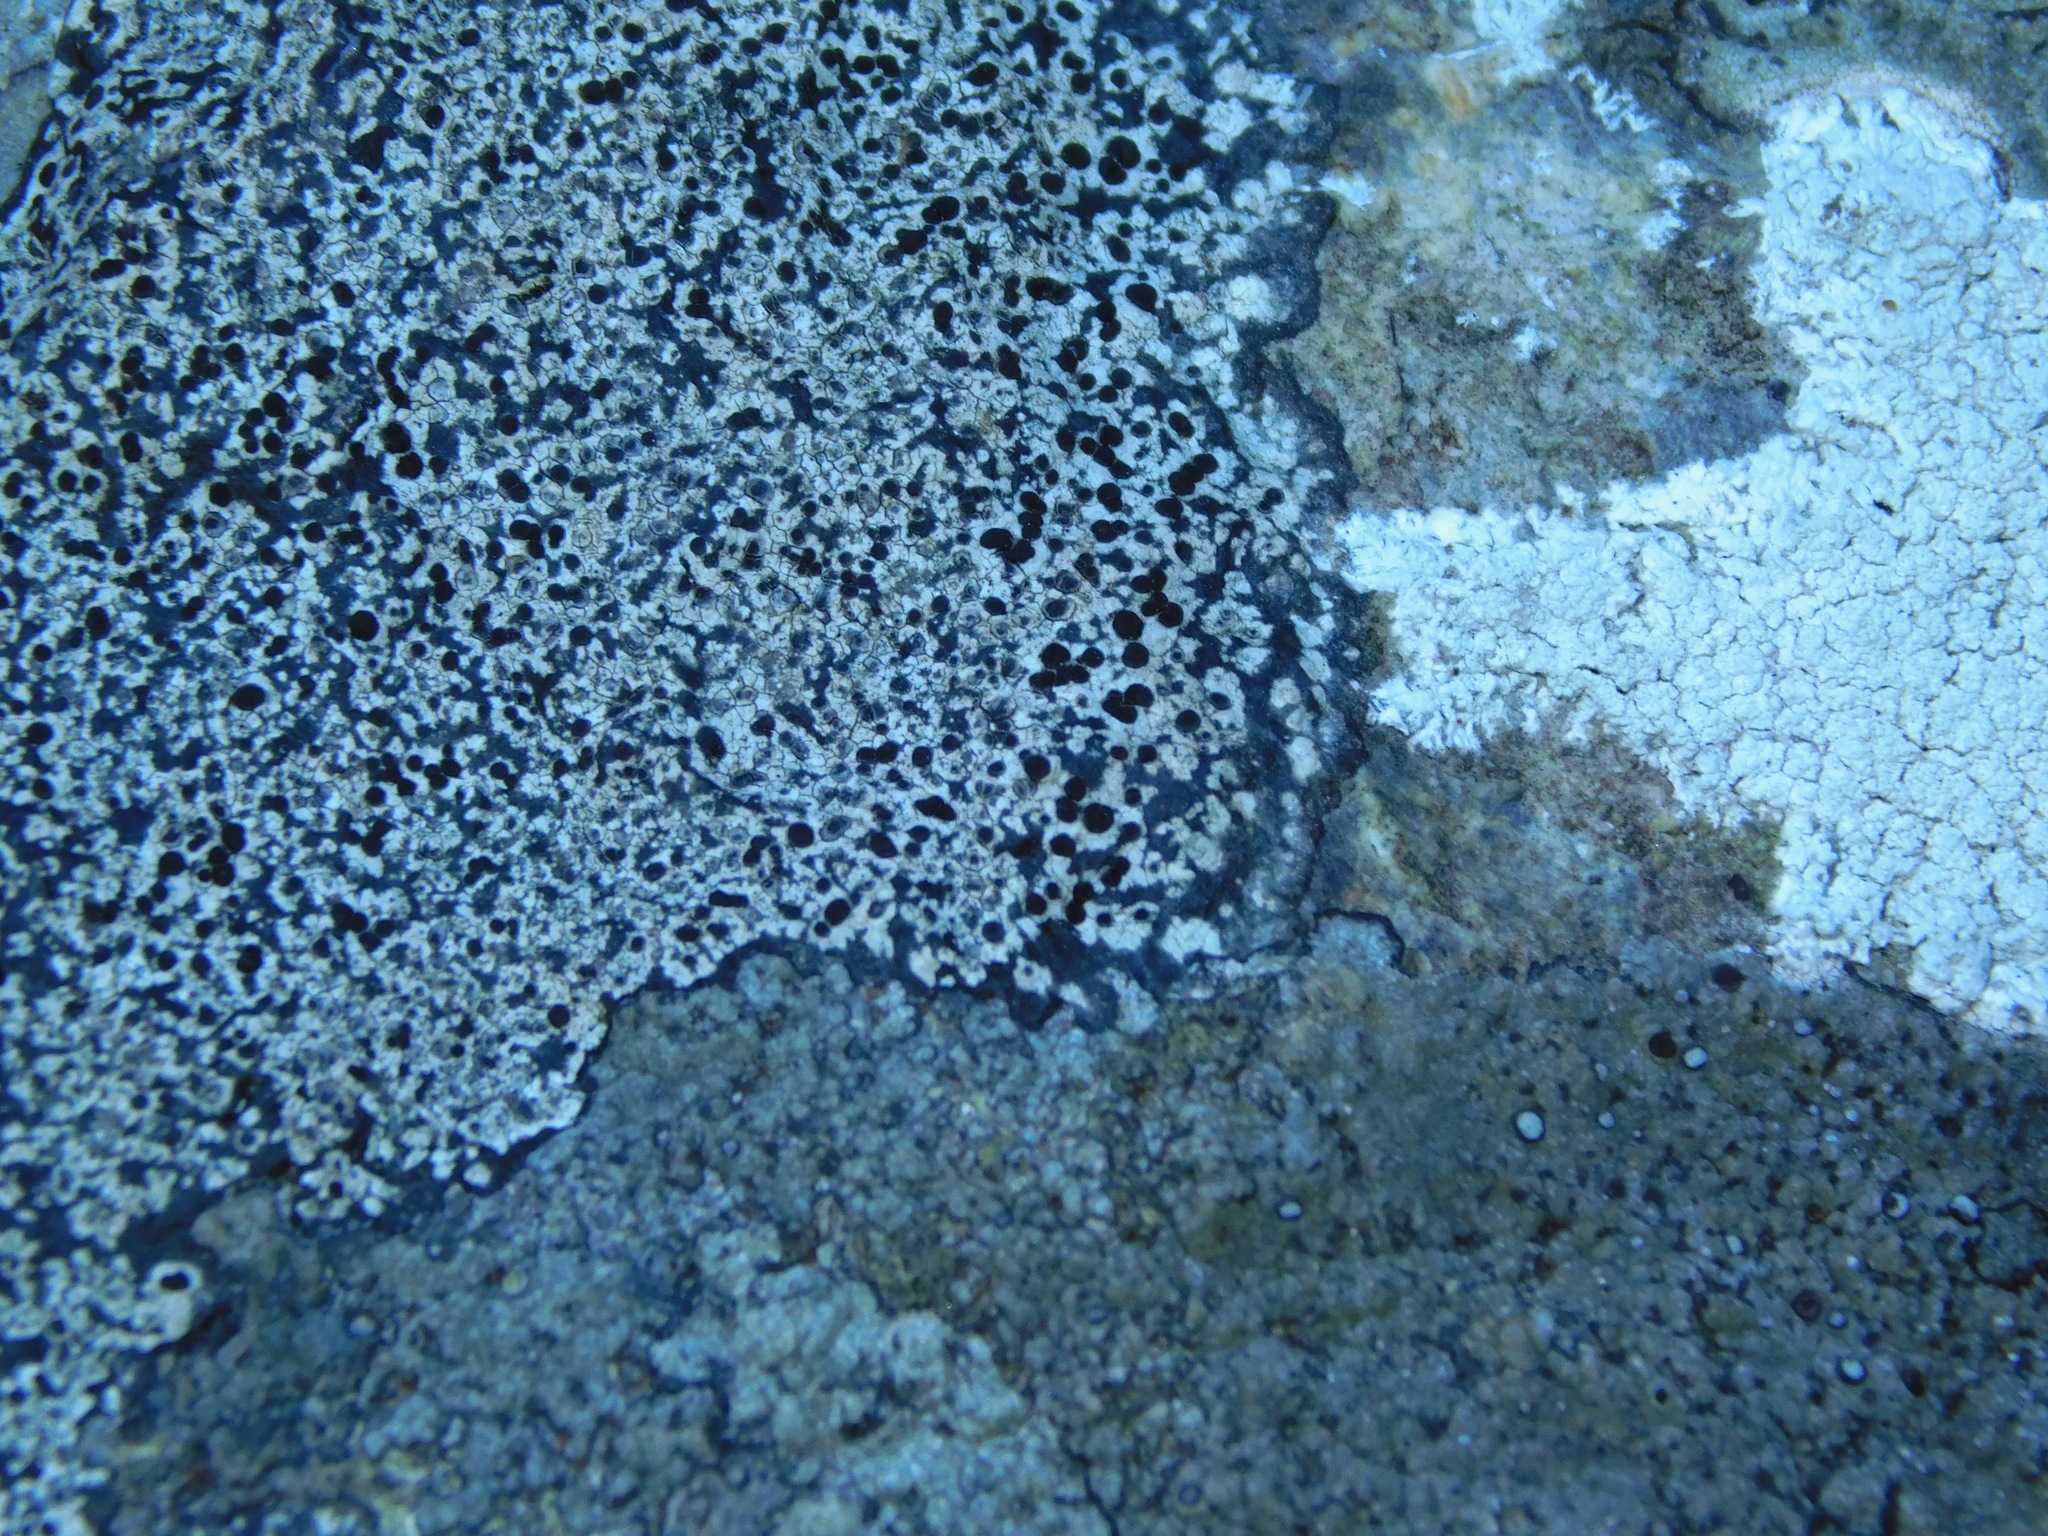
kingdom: Fungi
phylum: Ascomycota
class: Lecanoromycetes
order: Caliciales
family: Caliciaceae
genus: Buellia
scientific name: Buellia spuria
